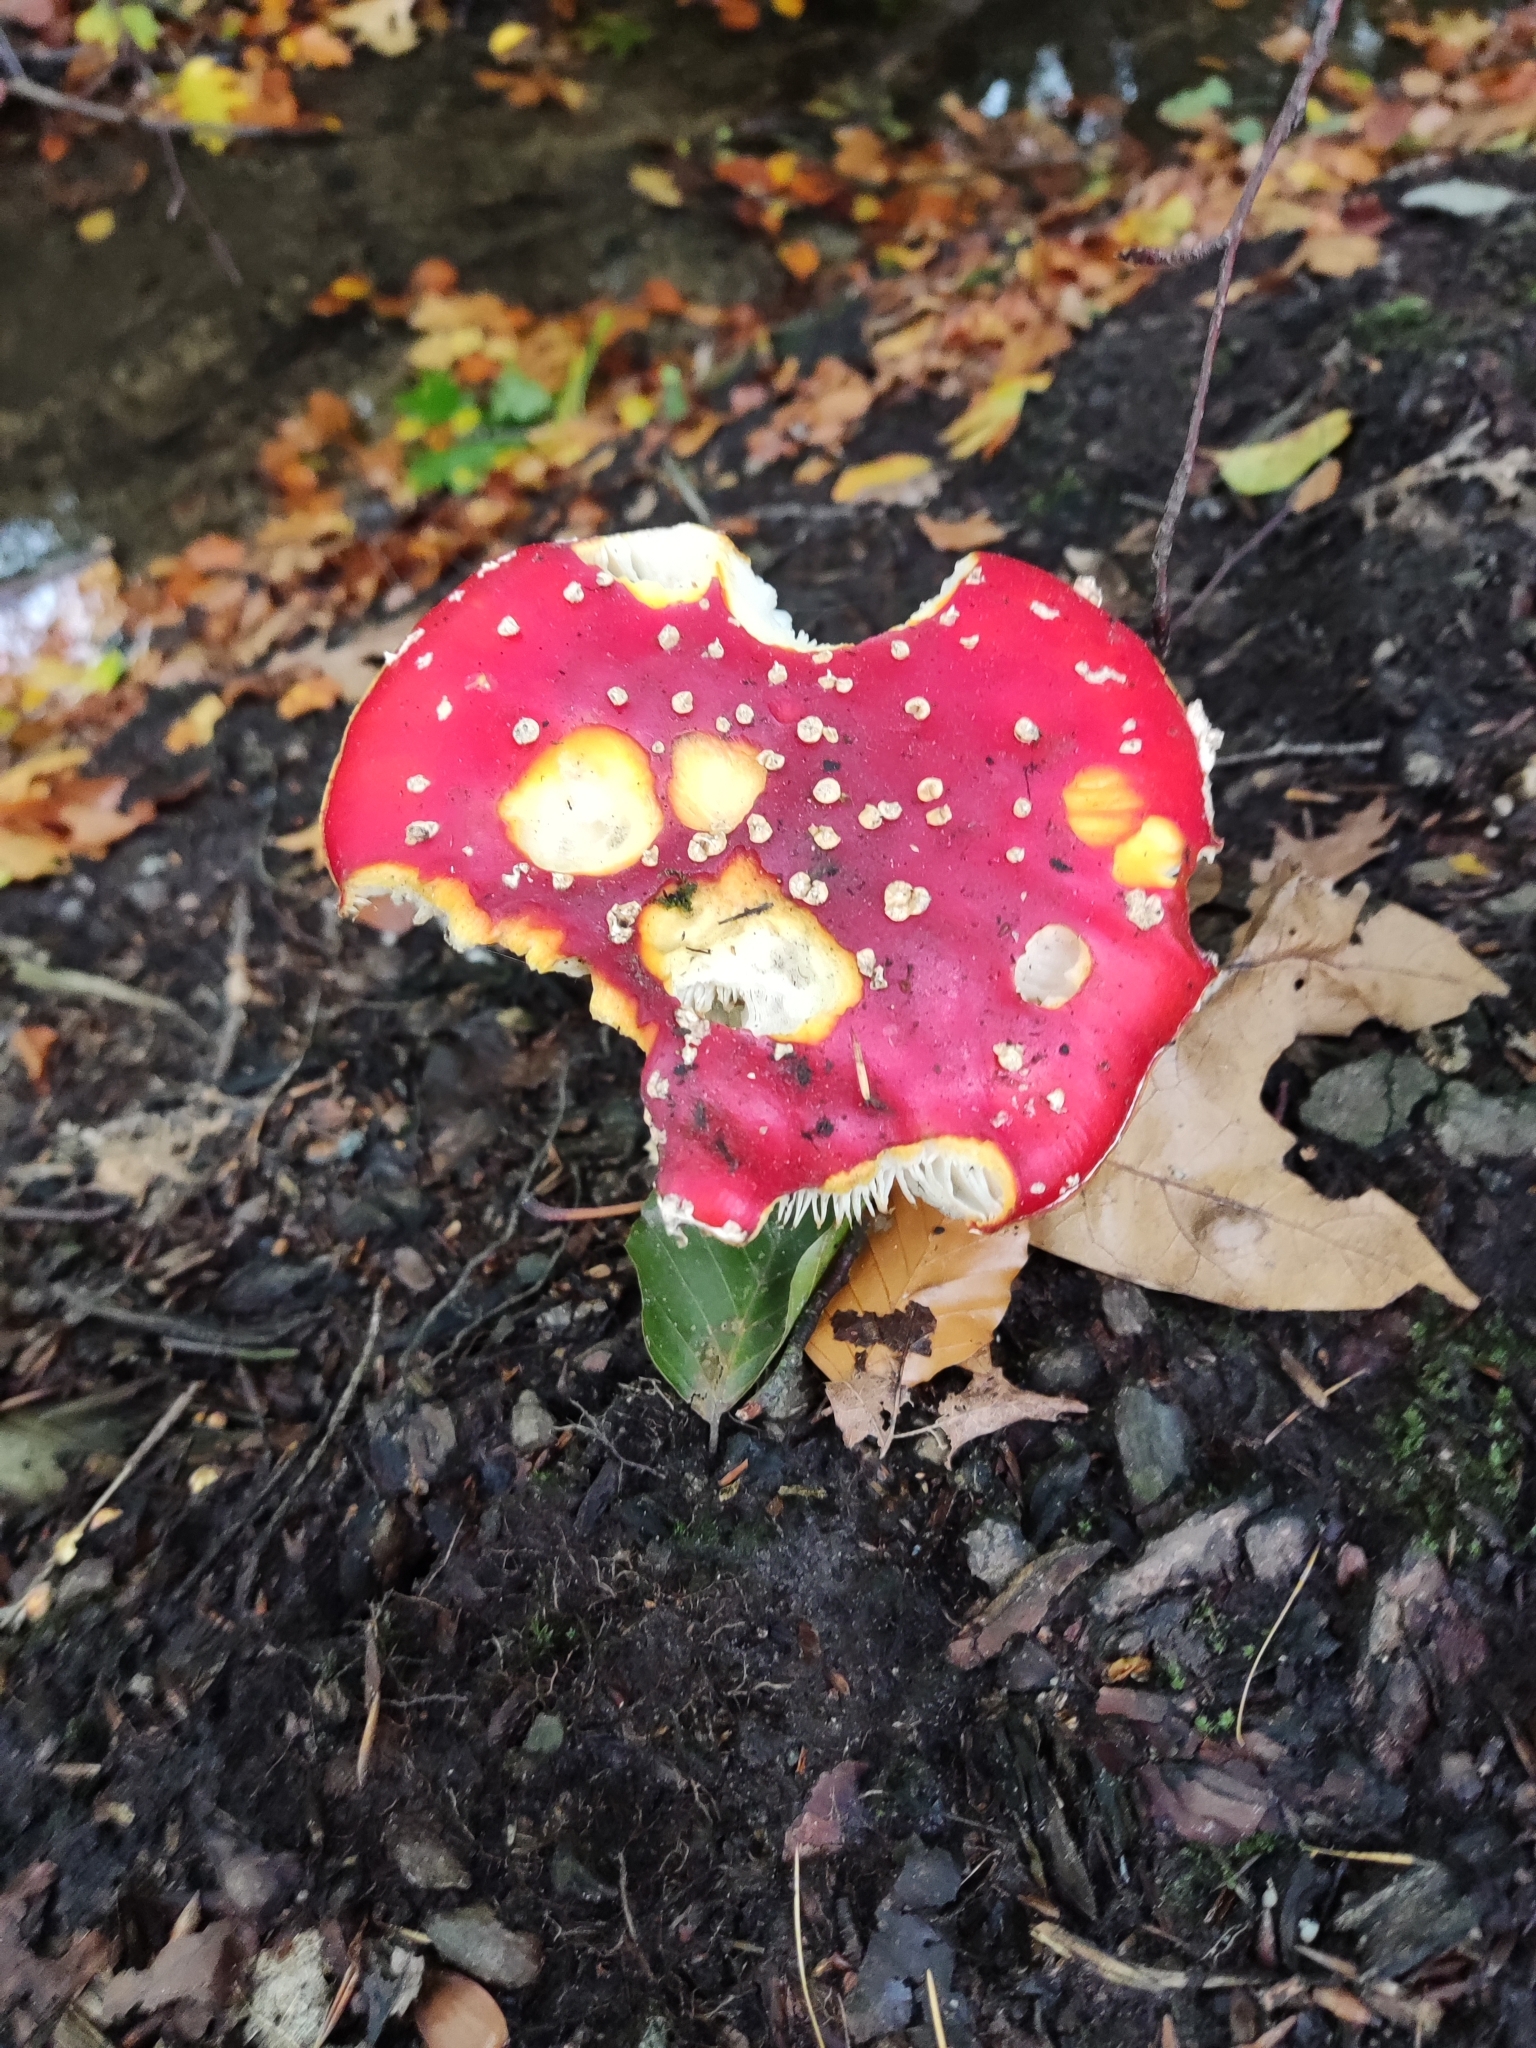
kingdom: Fungi
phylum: Basidiomycota
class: Agaricomycetes
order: Agaricales
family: Amanitaceae
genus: Amanita
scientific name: Amanita muscaria
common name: Fly agaric
